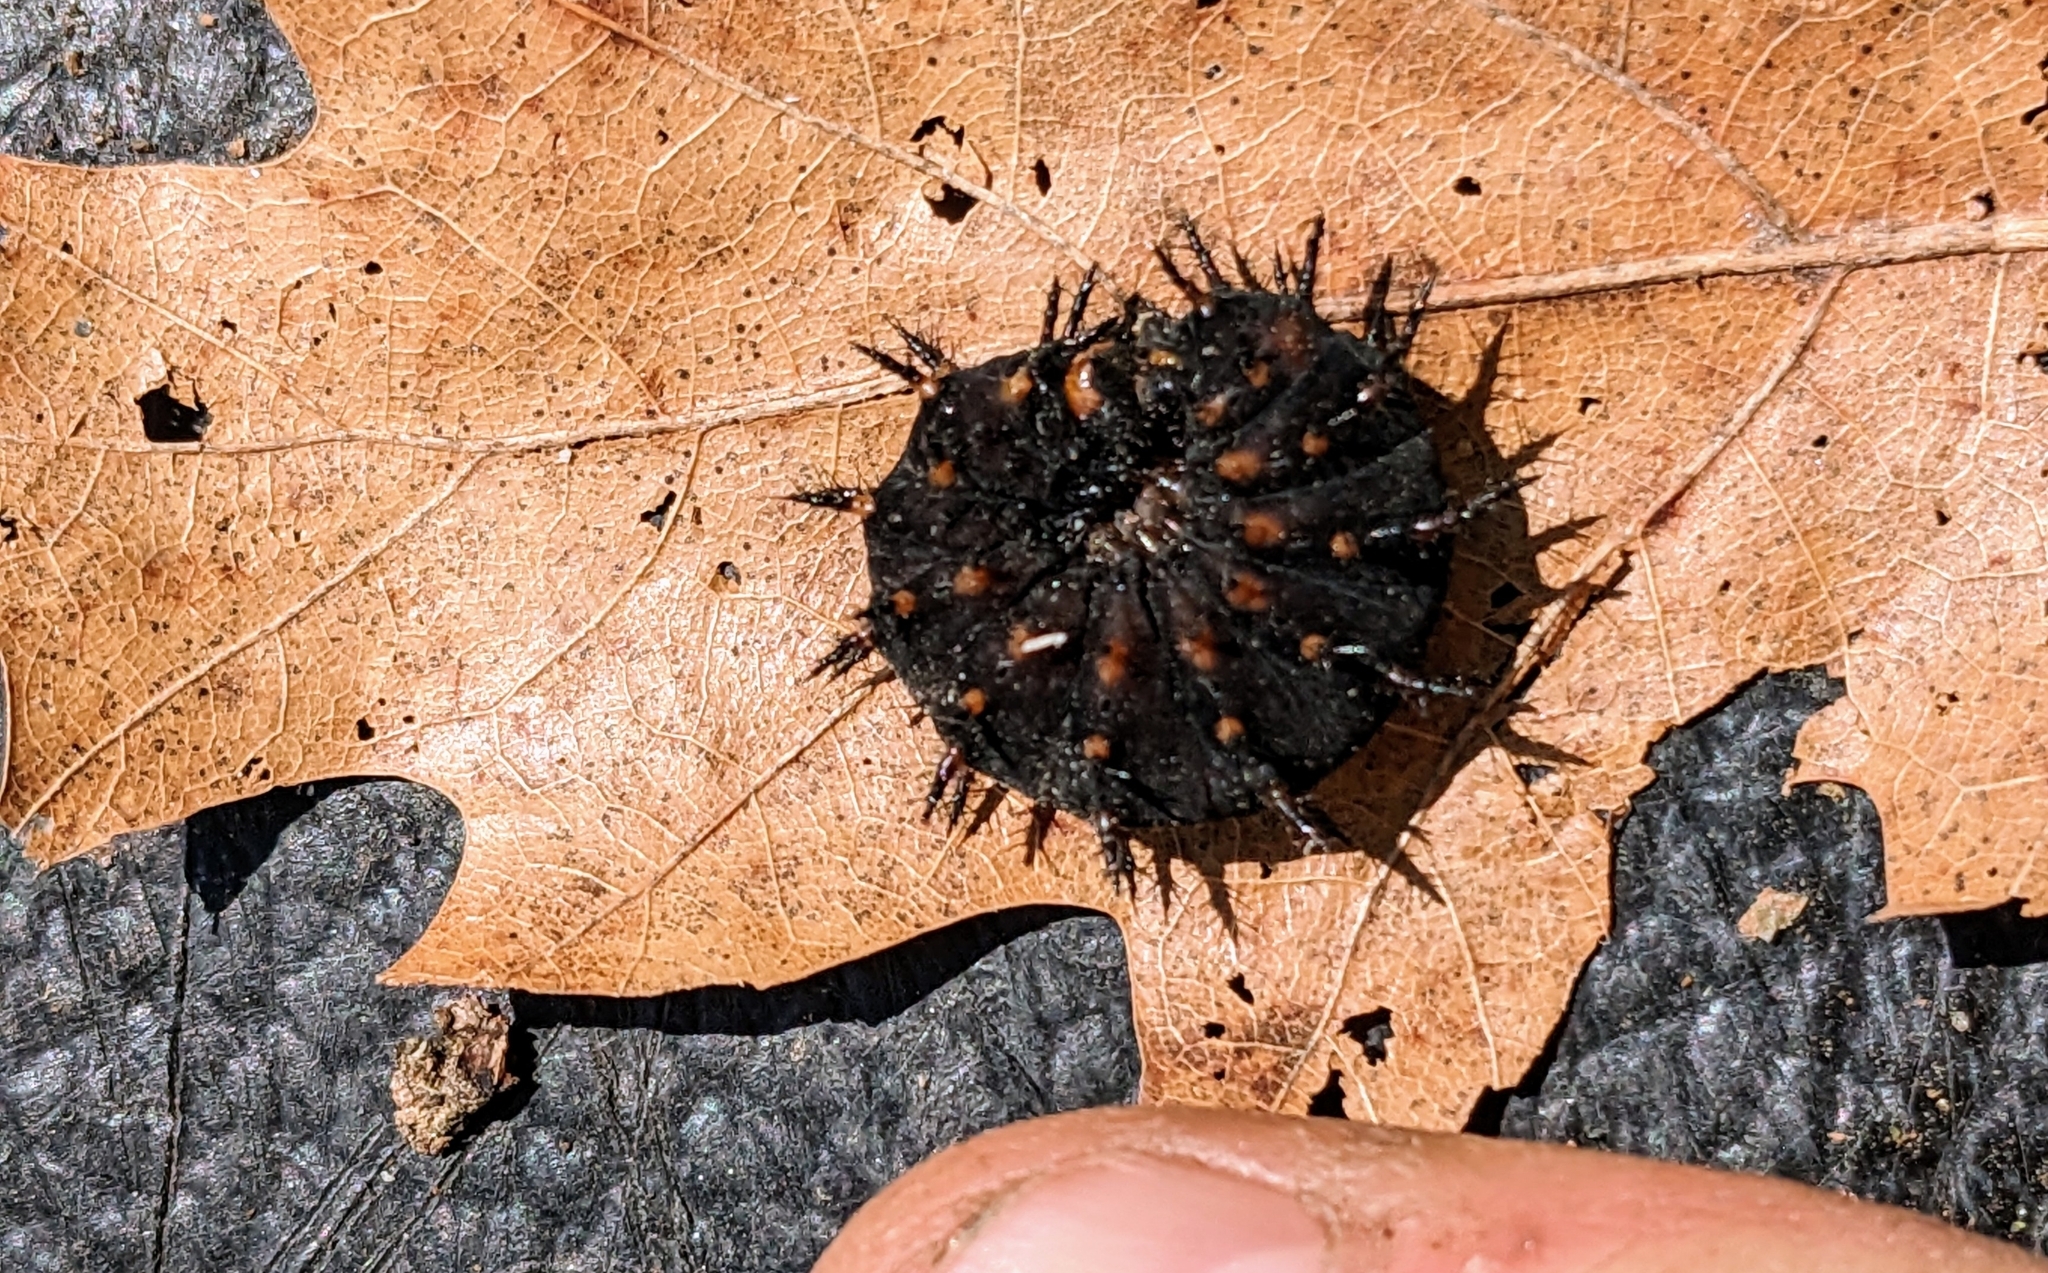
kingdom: Animalia
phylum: Arthropoda
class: Insecta
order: Lepidoptera
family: Nymphalidae
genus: Speyeria
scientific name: Speyeria cybele
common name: Great spangled fritillary
